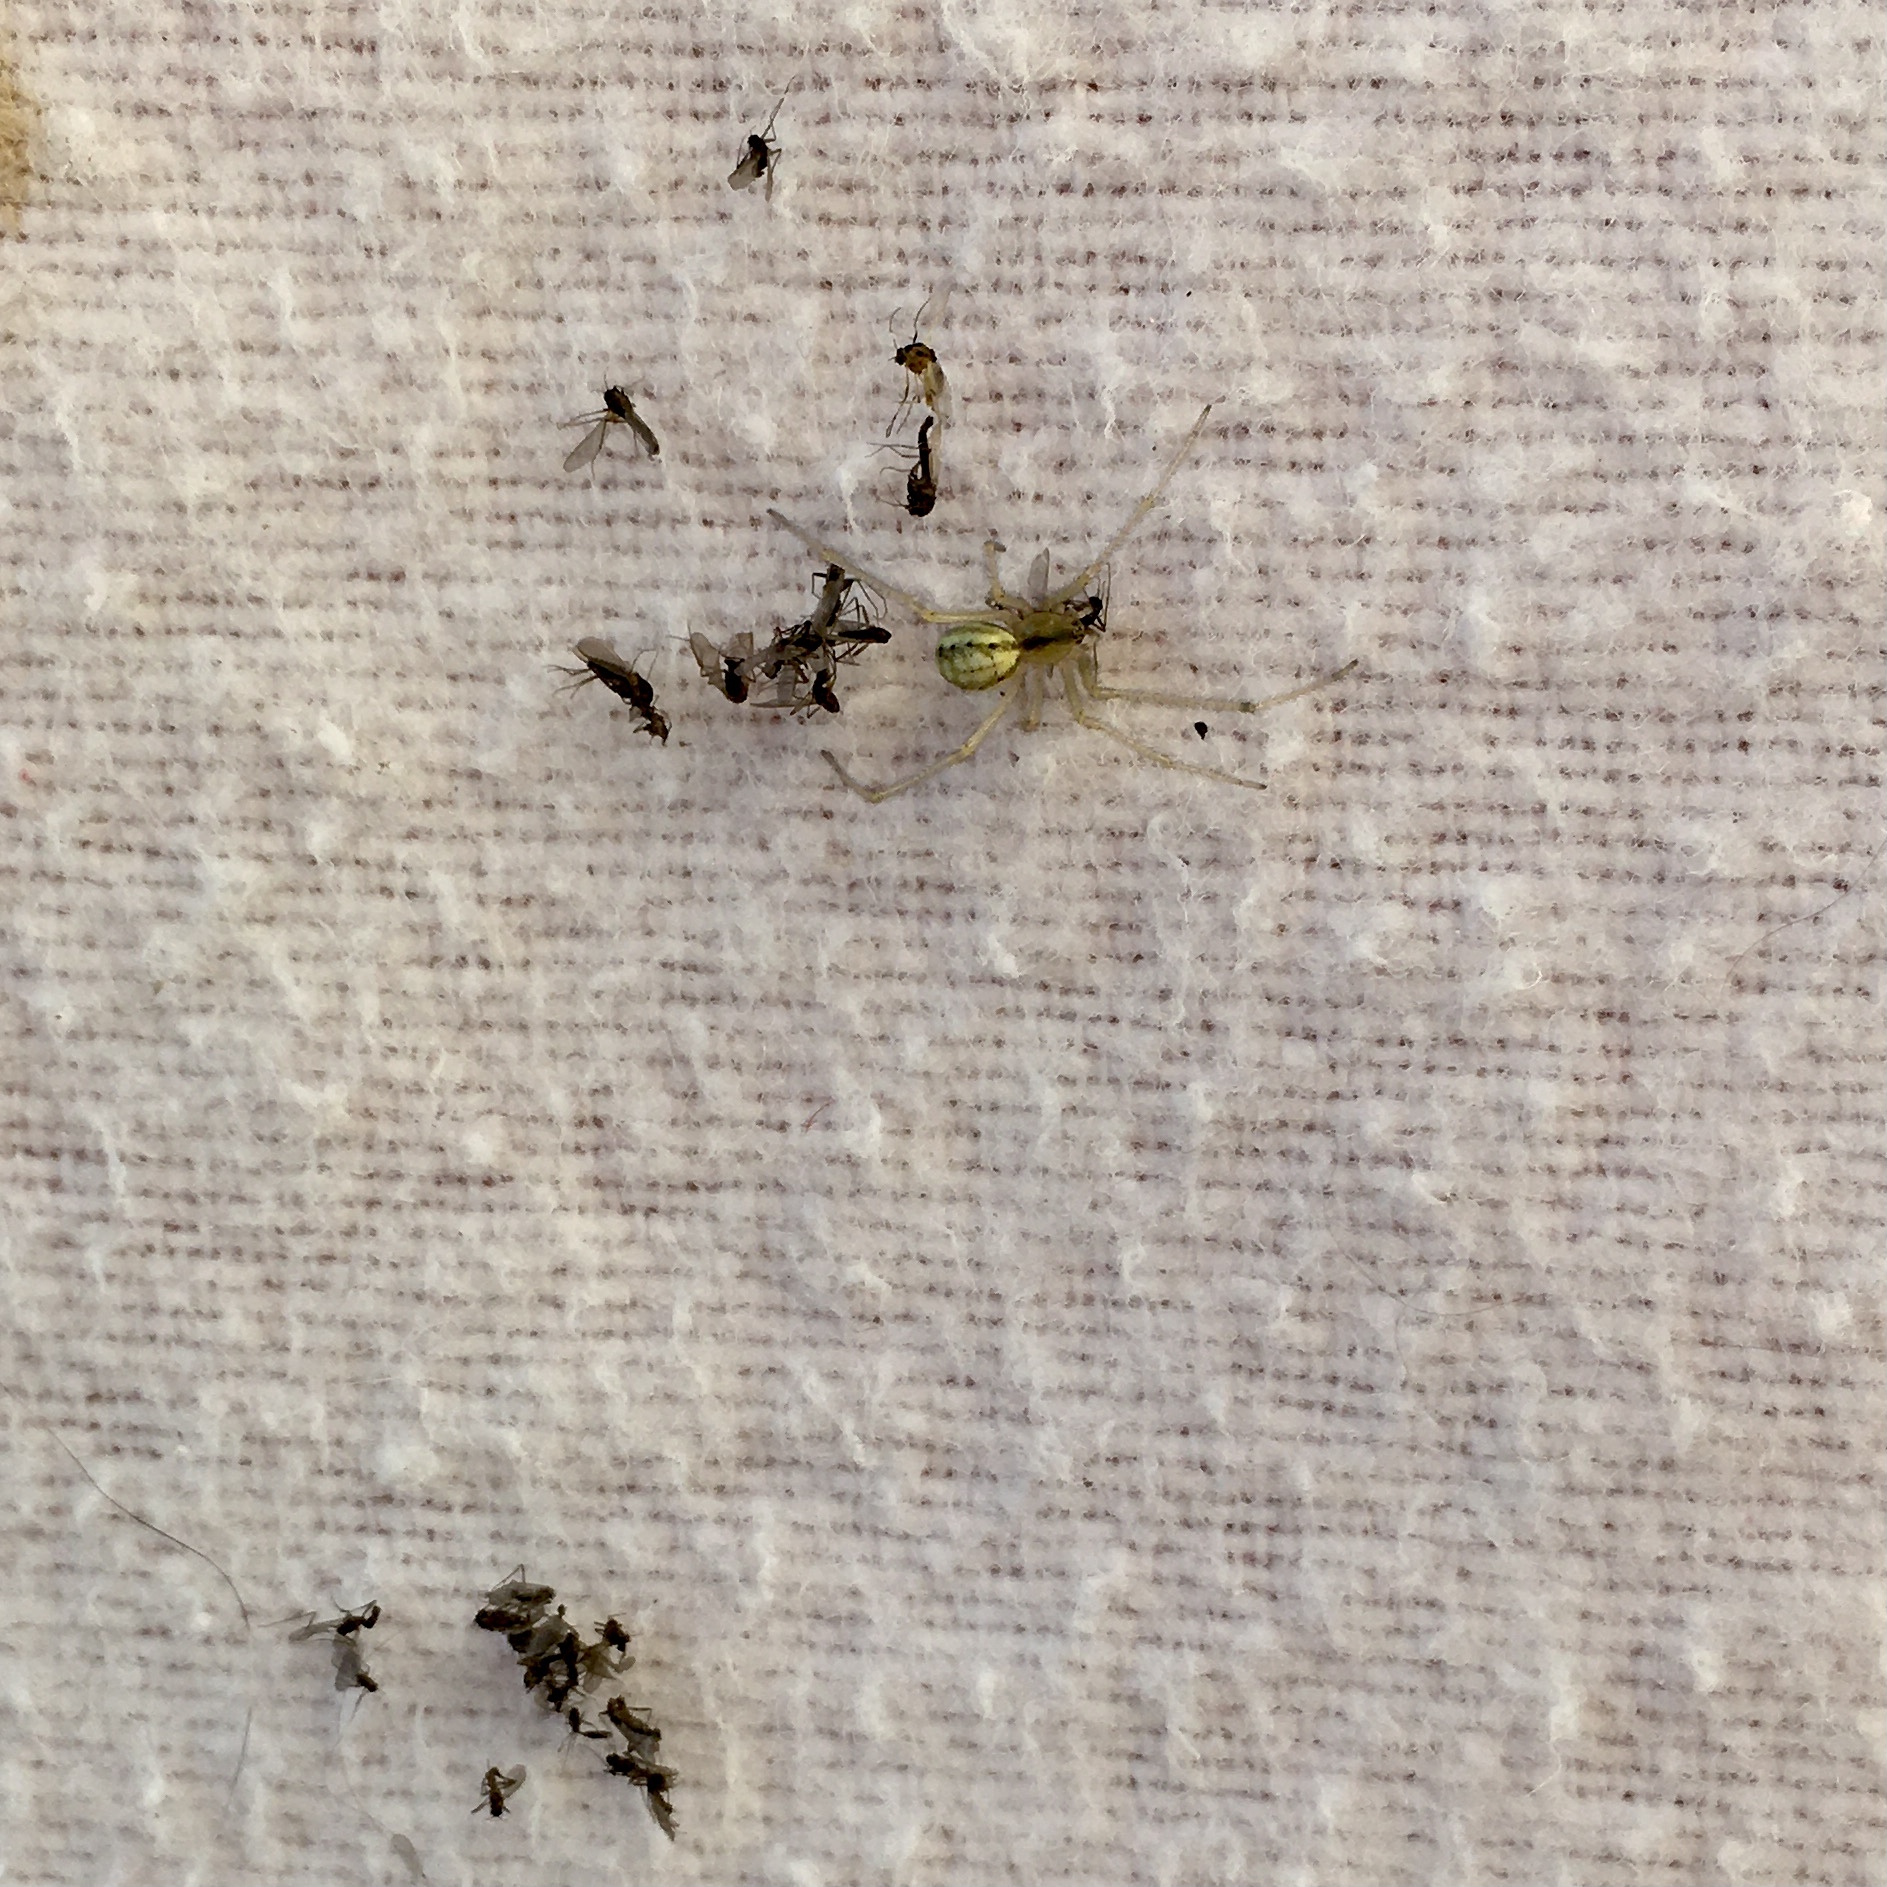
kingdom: Animalia
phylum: Arthropoda
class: Arachnida
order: Araneae
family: Theridiidae
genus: Enoplognatha
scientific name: Enoplognatha ovata
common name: Common candy-striped spider
